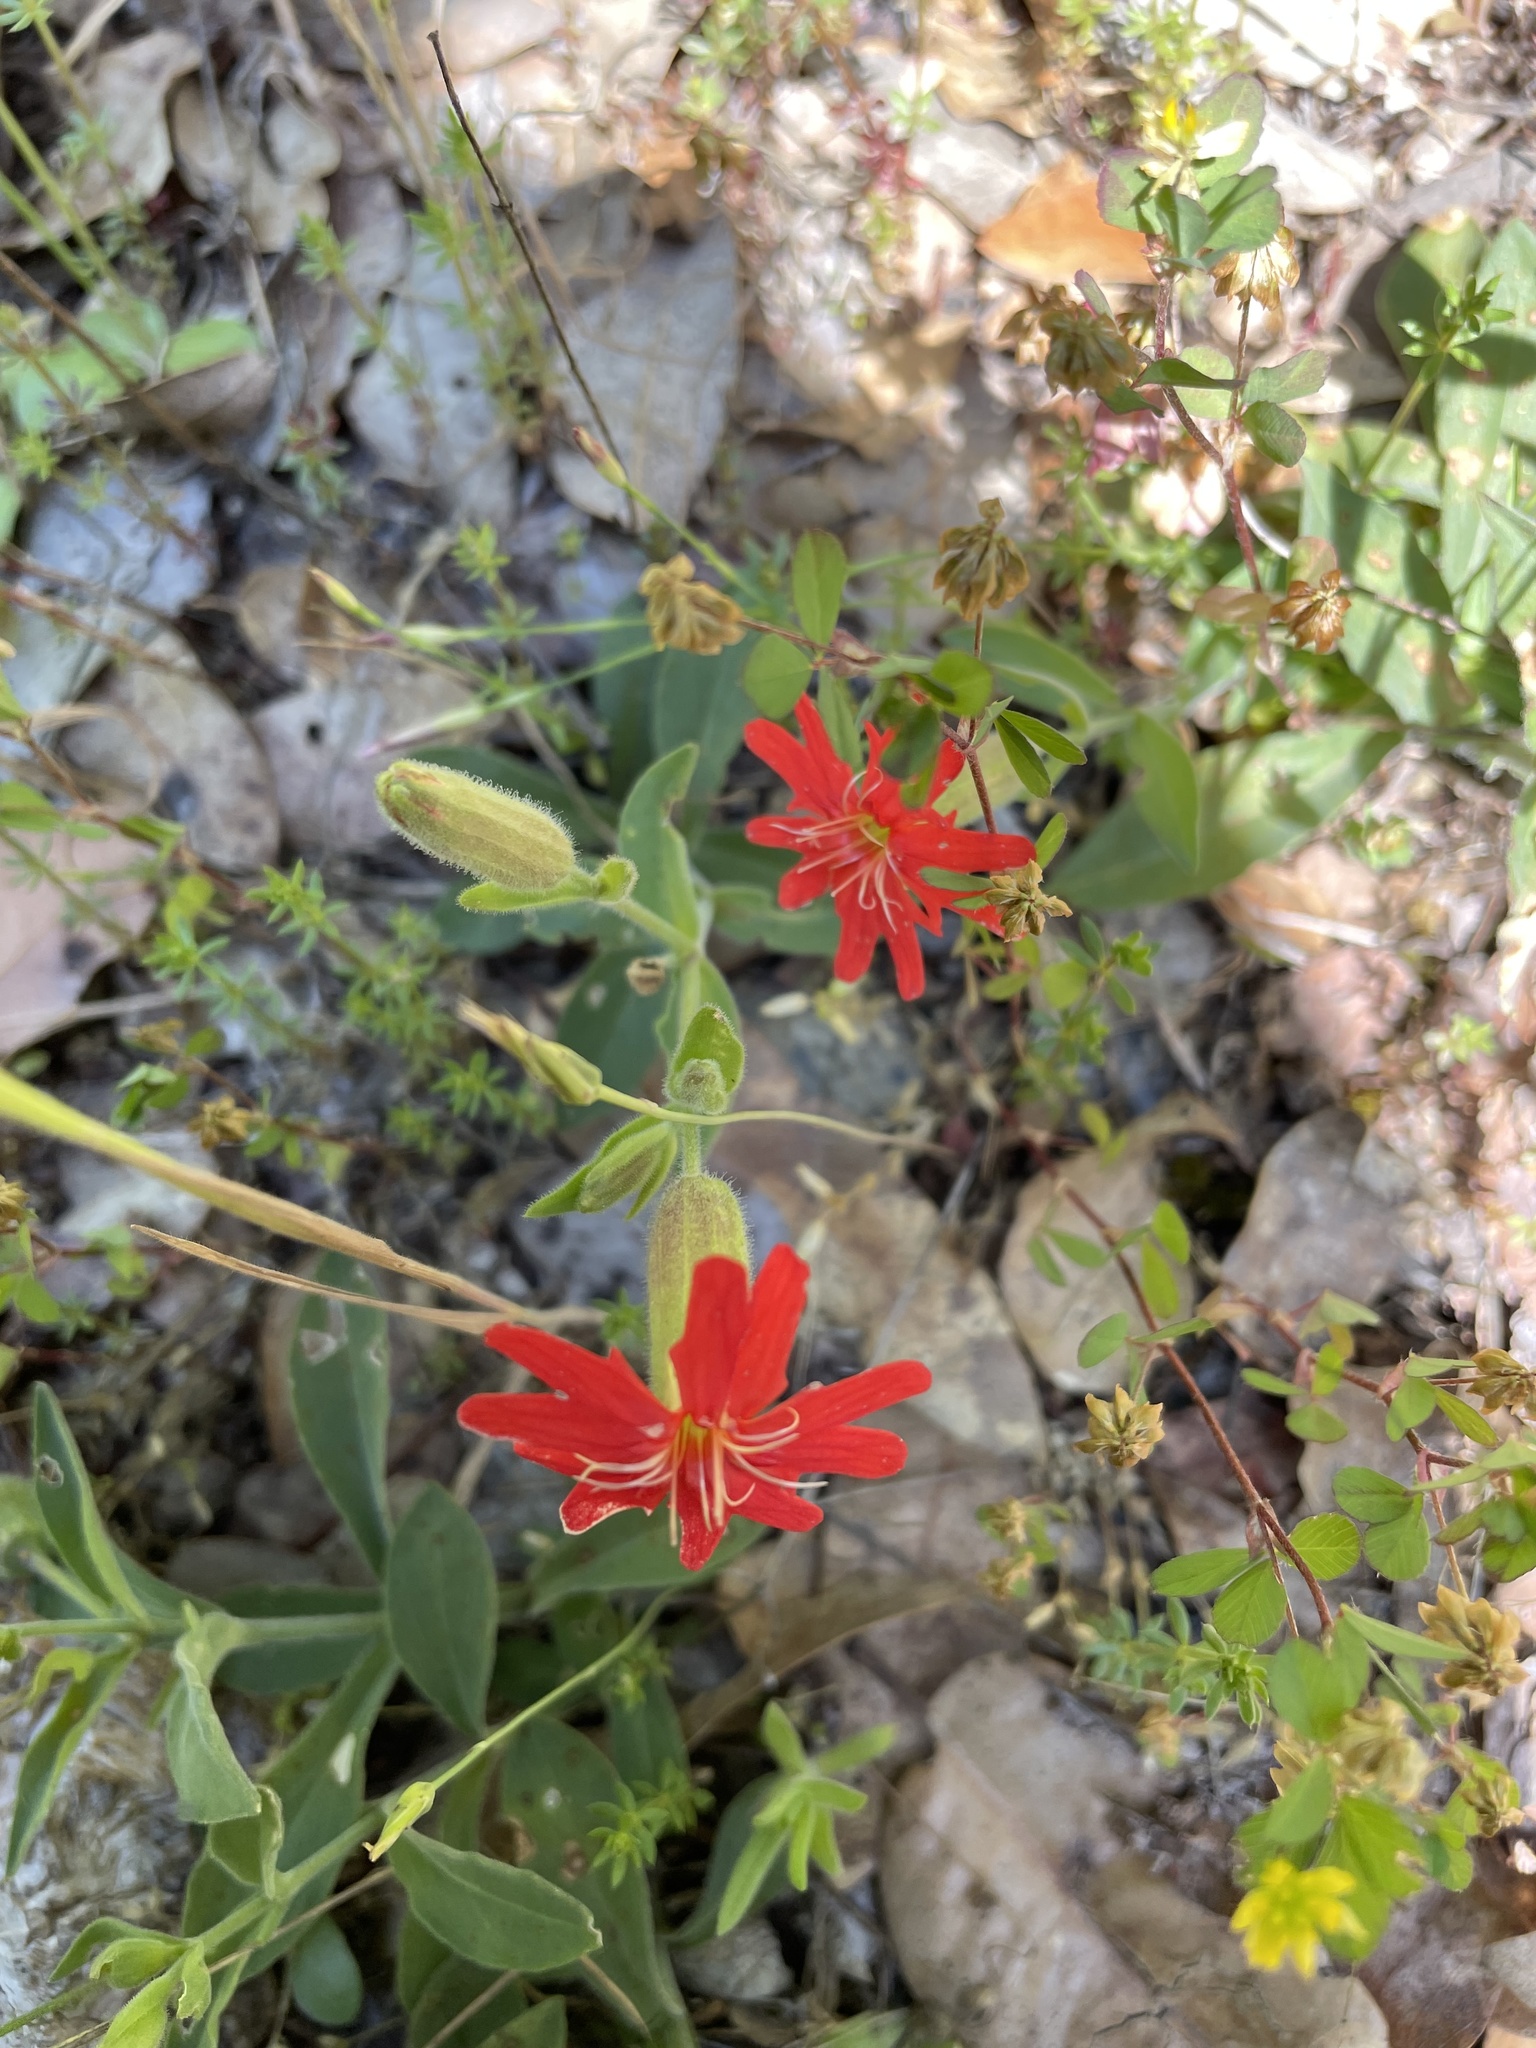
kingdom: Plantae
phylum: Tracheophyta
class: Magnoliopsida
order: Caryophyllales
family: Caryophyllaceae
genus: Silene
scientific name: Silene laciniata
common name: Indian-pink
